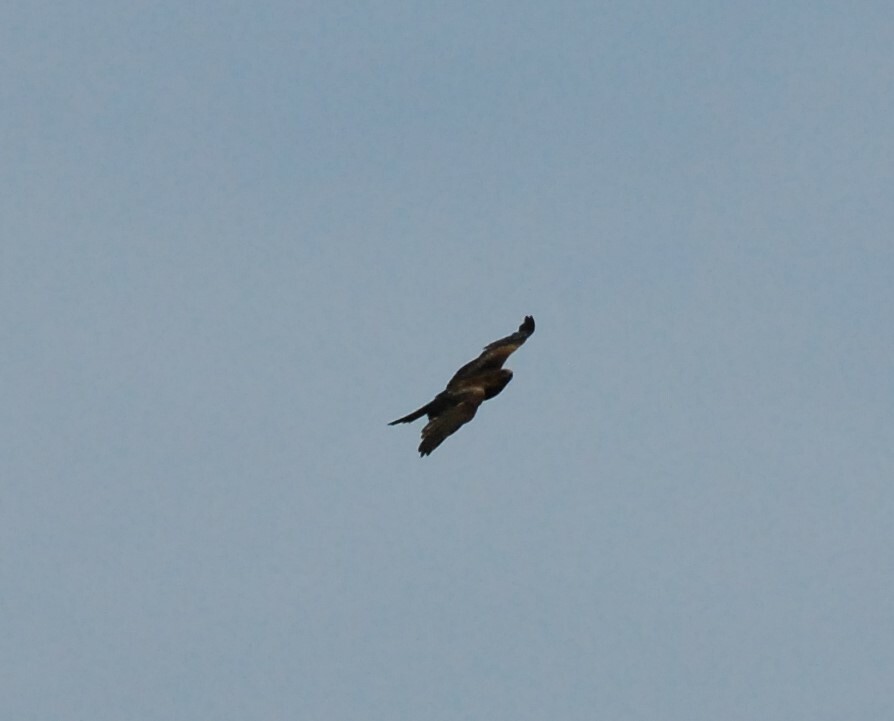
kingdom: Animalia
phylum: Chordata
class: Aves
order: Accipitriformes
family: Accipitridae
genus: Milvus
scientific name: Milvus migrans
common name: Black kite
